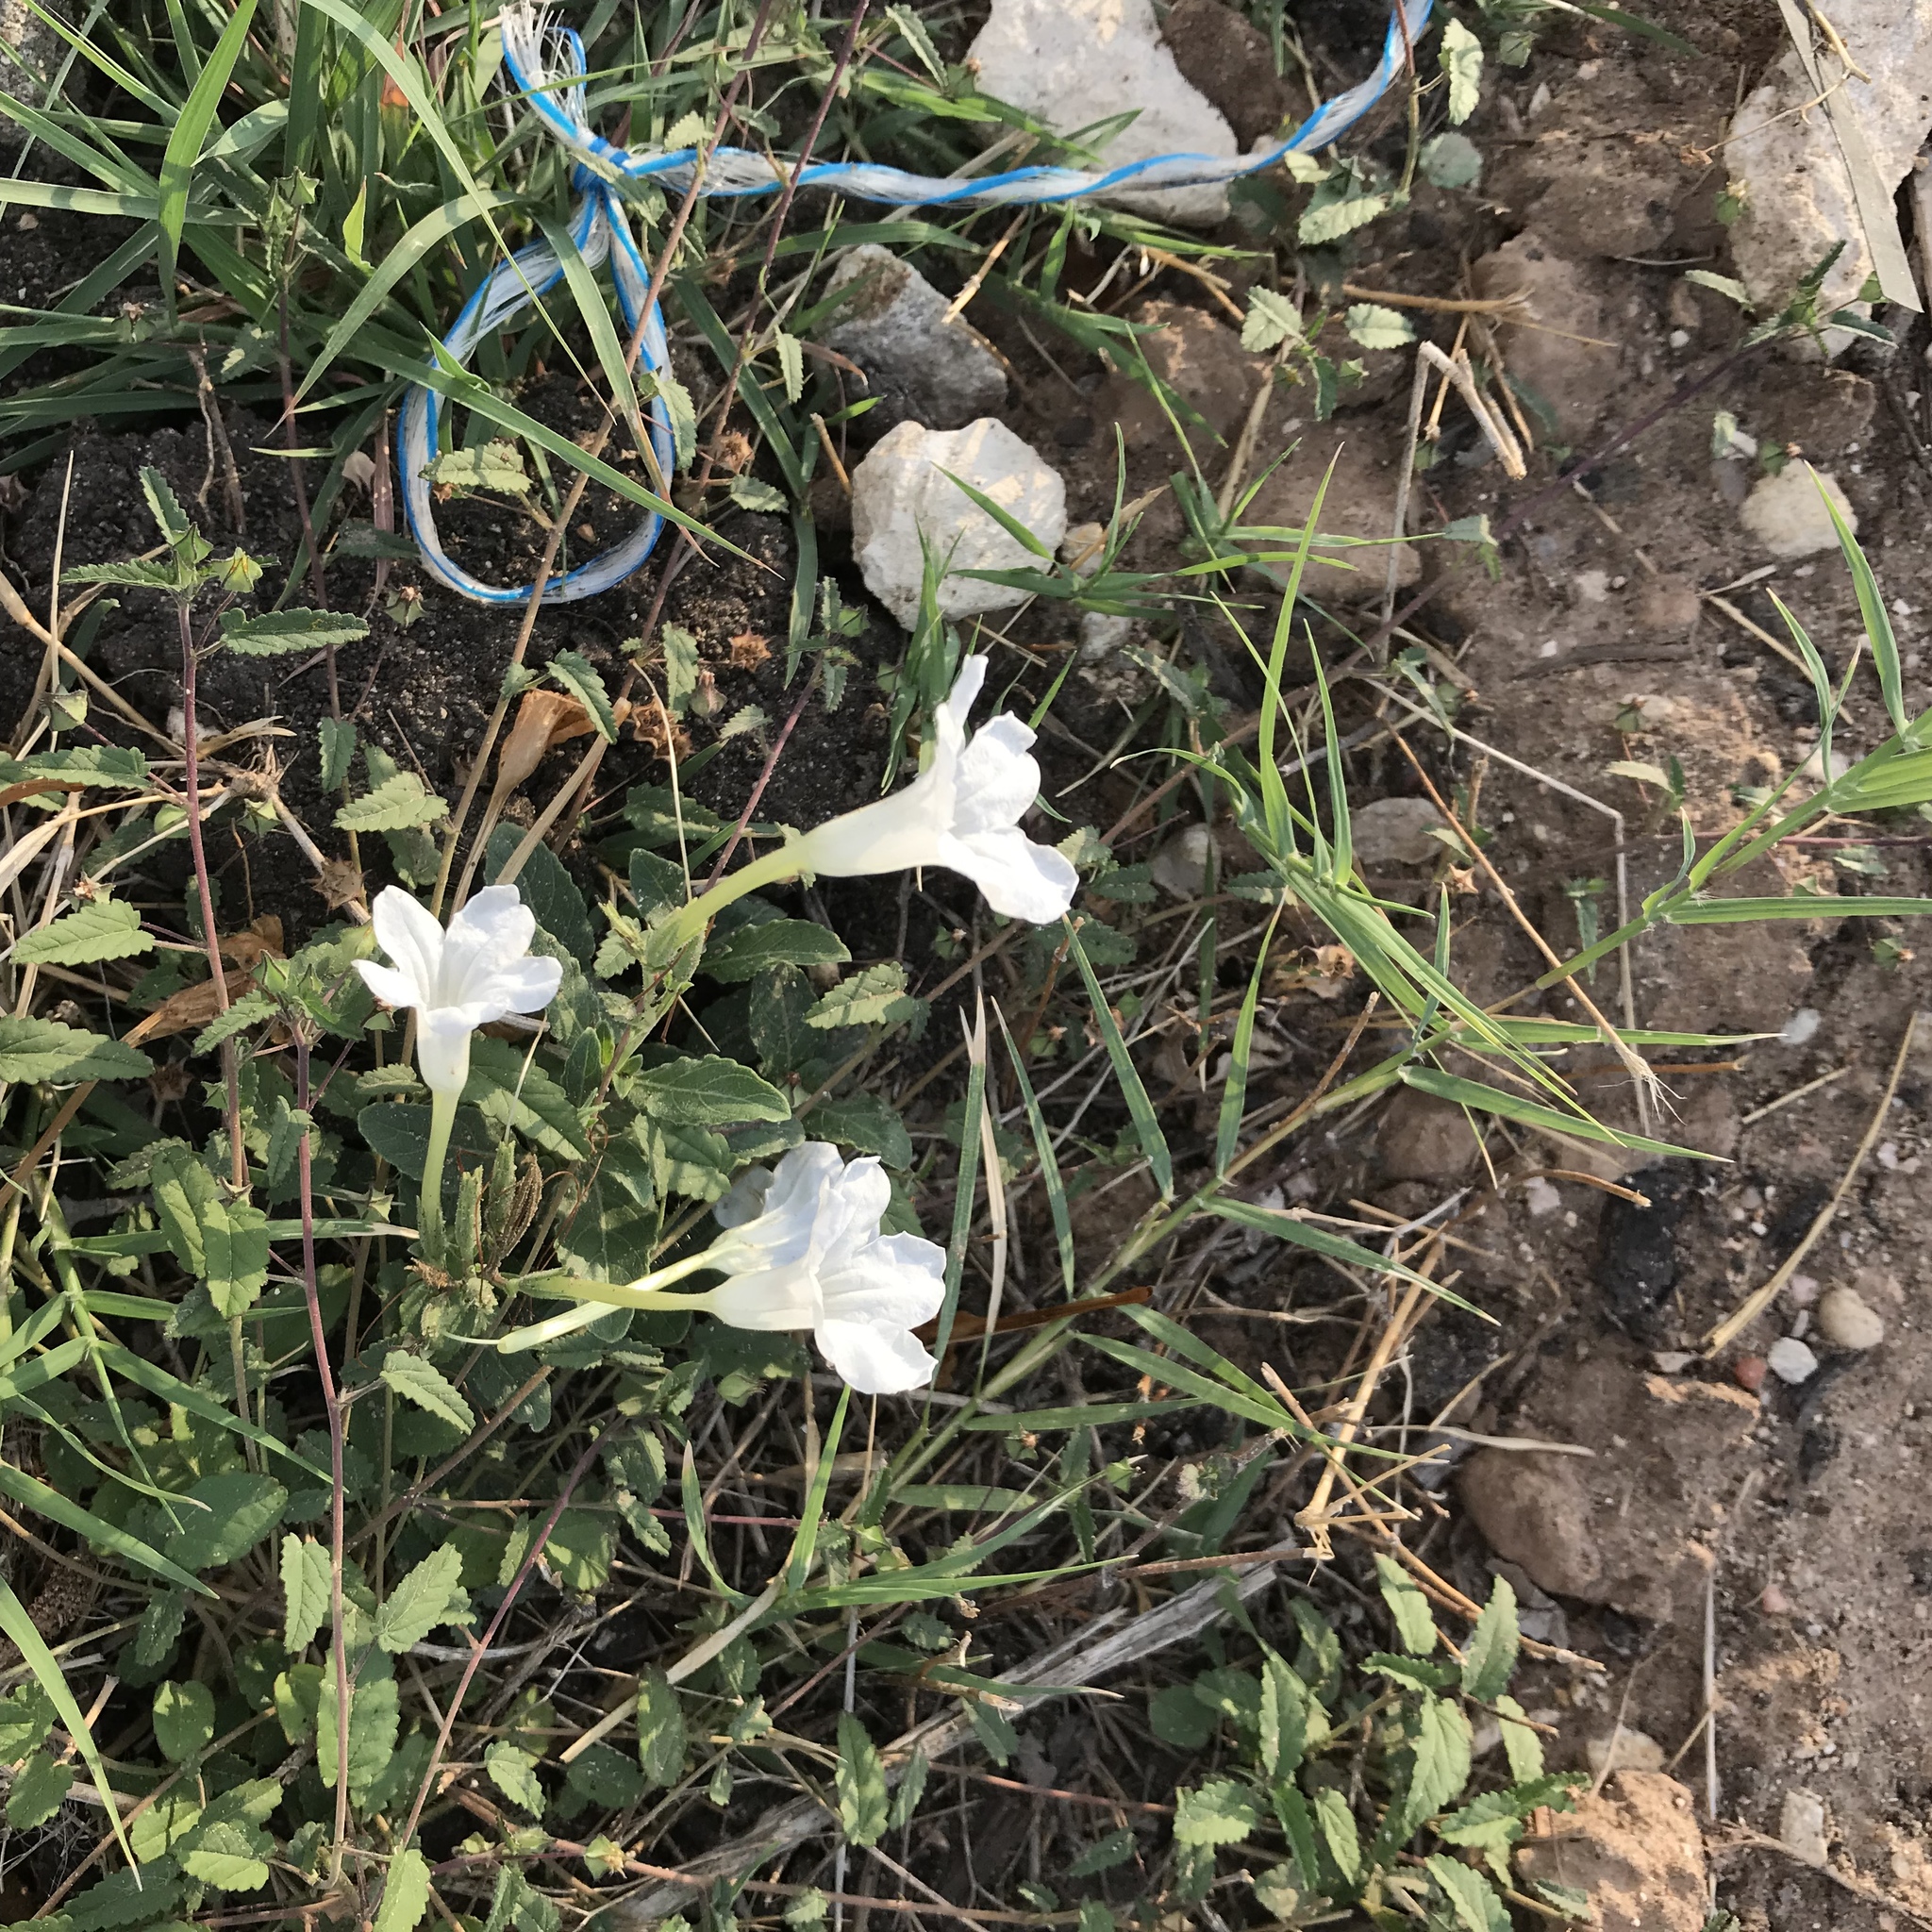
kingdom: Plantae
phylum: Tracheophyta
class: Magnoliopsida
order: Lamiales
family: Acanthaceae
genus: Ruellia
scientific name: Ruellia metziae
